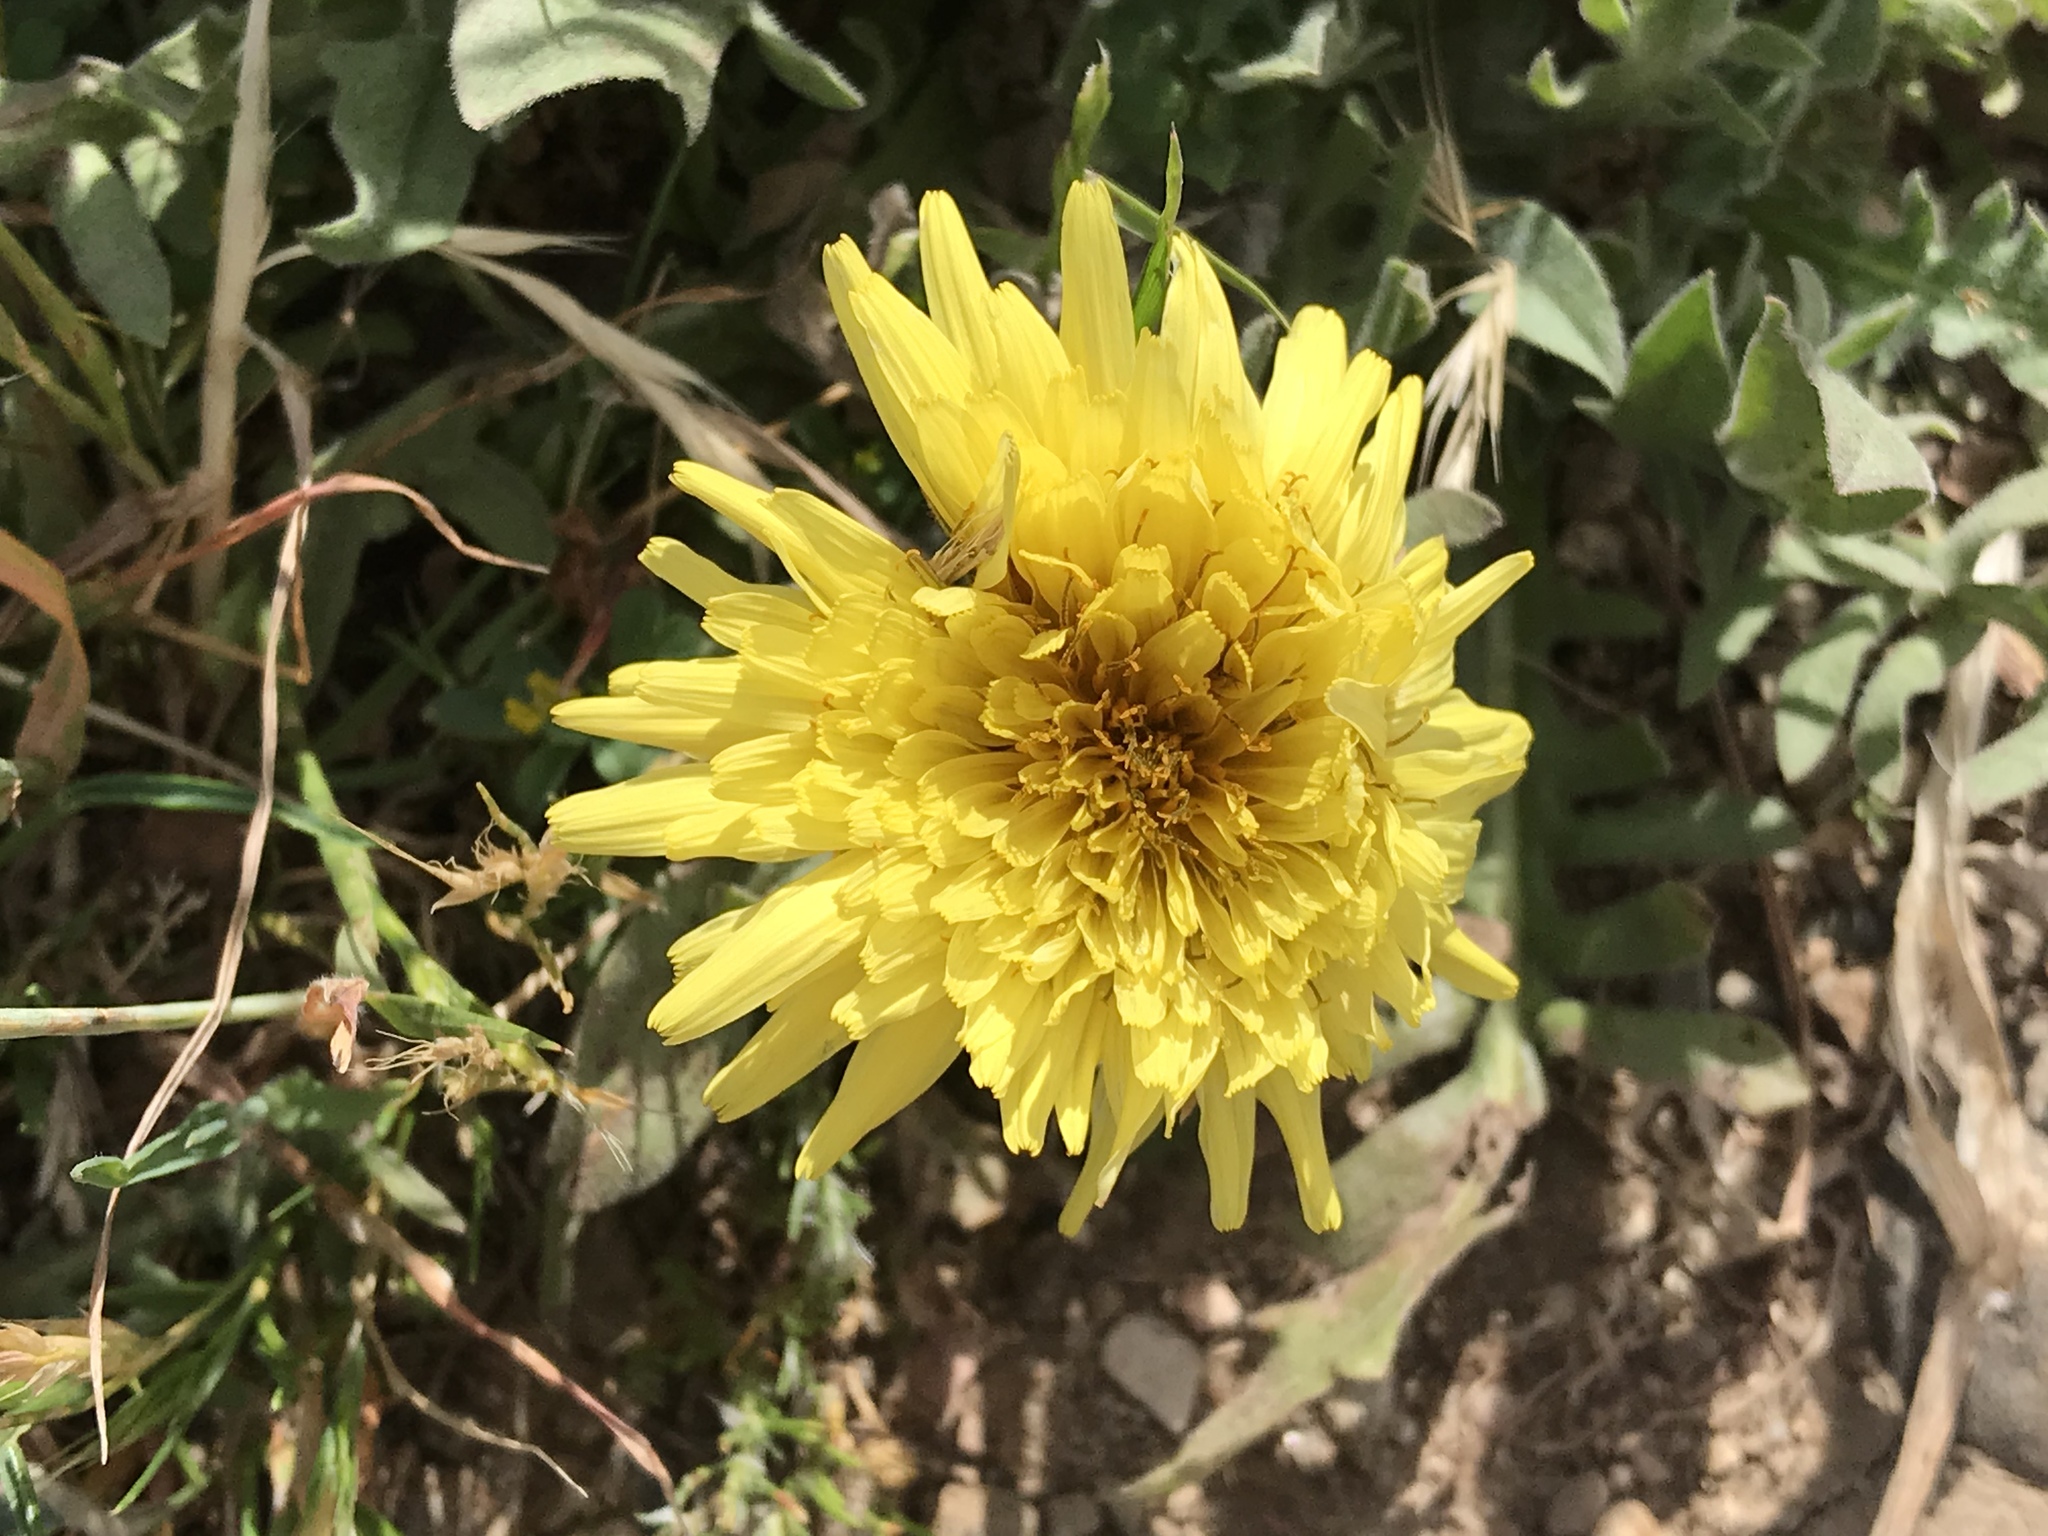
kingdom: Plantae
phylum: Tracheophyta
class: Magnoliopsida
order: Asterales
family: Asteraceae
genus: Taraxacum
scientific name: Taraxacum officinale
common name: Common dandelion
